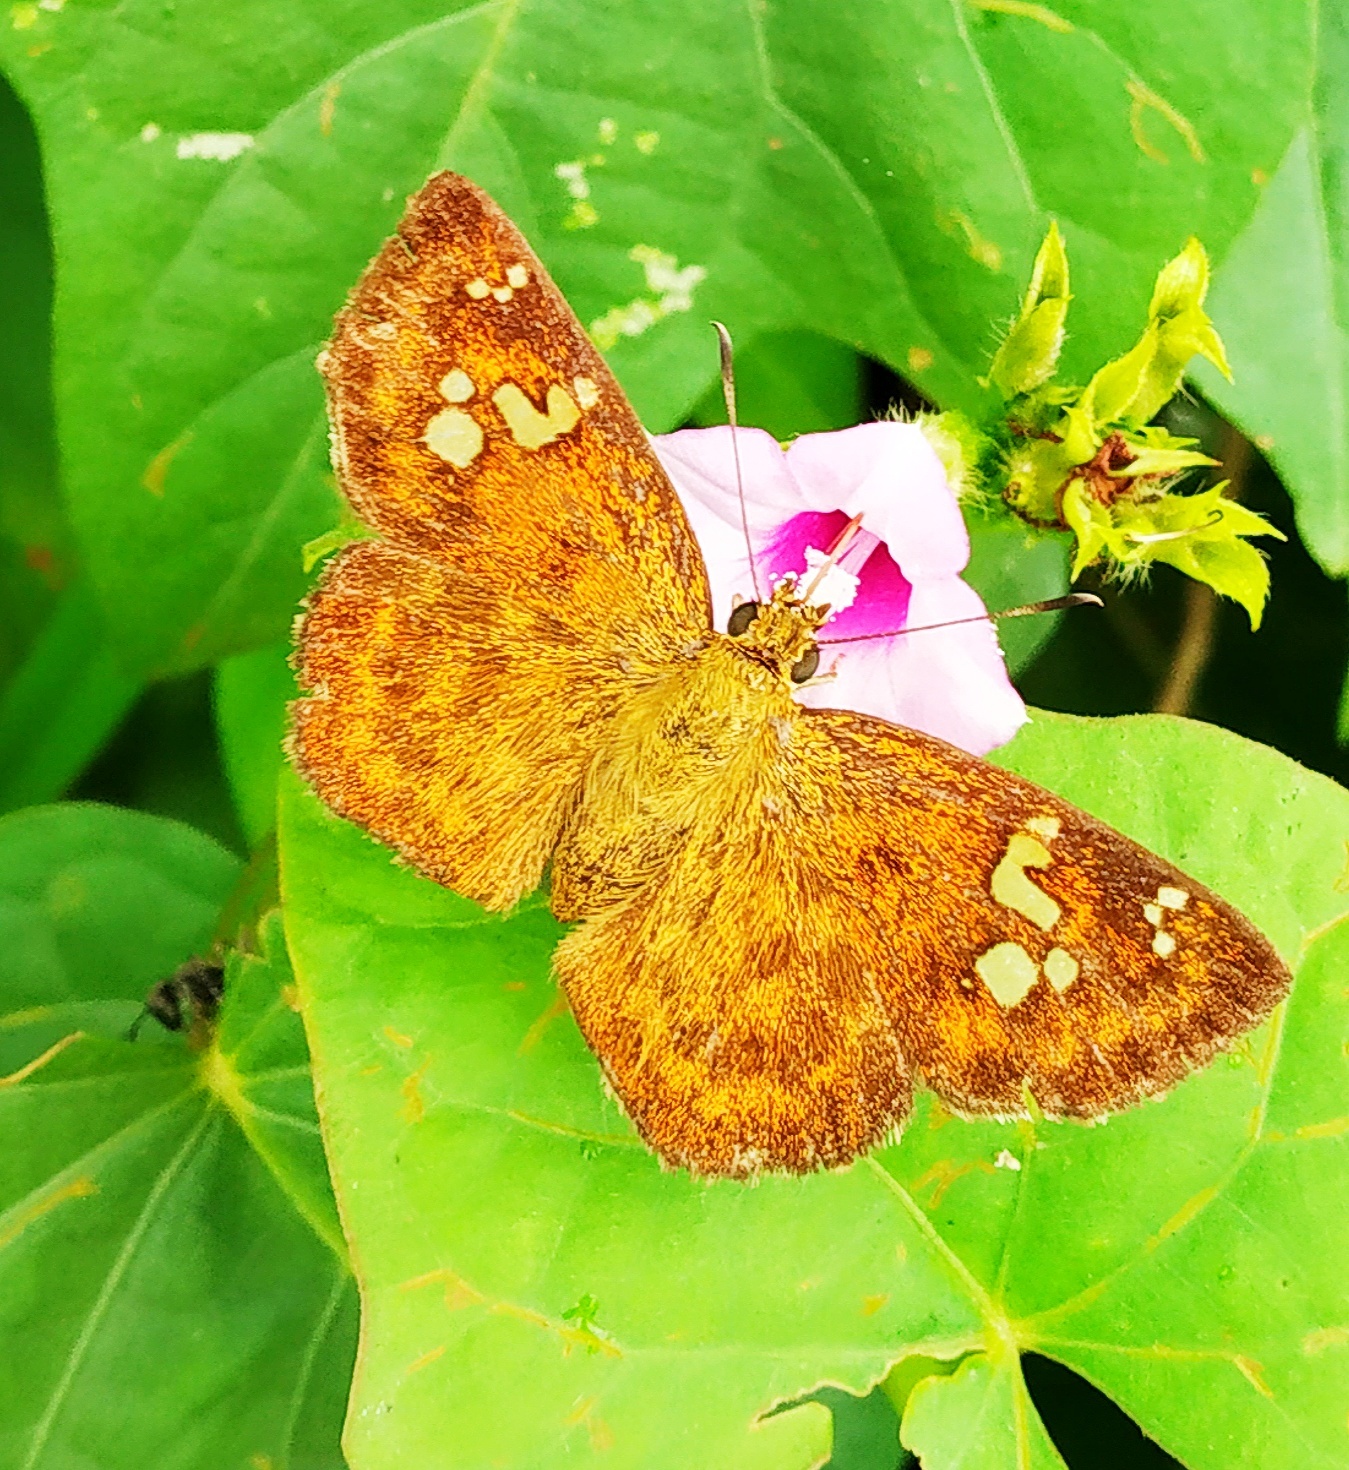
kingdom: Animalia
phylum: Arthropoda
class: Insecta
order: Lepidoptera
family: Hesperiidae
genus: Pseudocoladenia
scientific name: Pseudocoladenia dan
